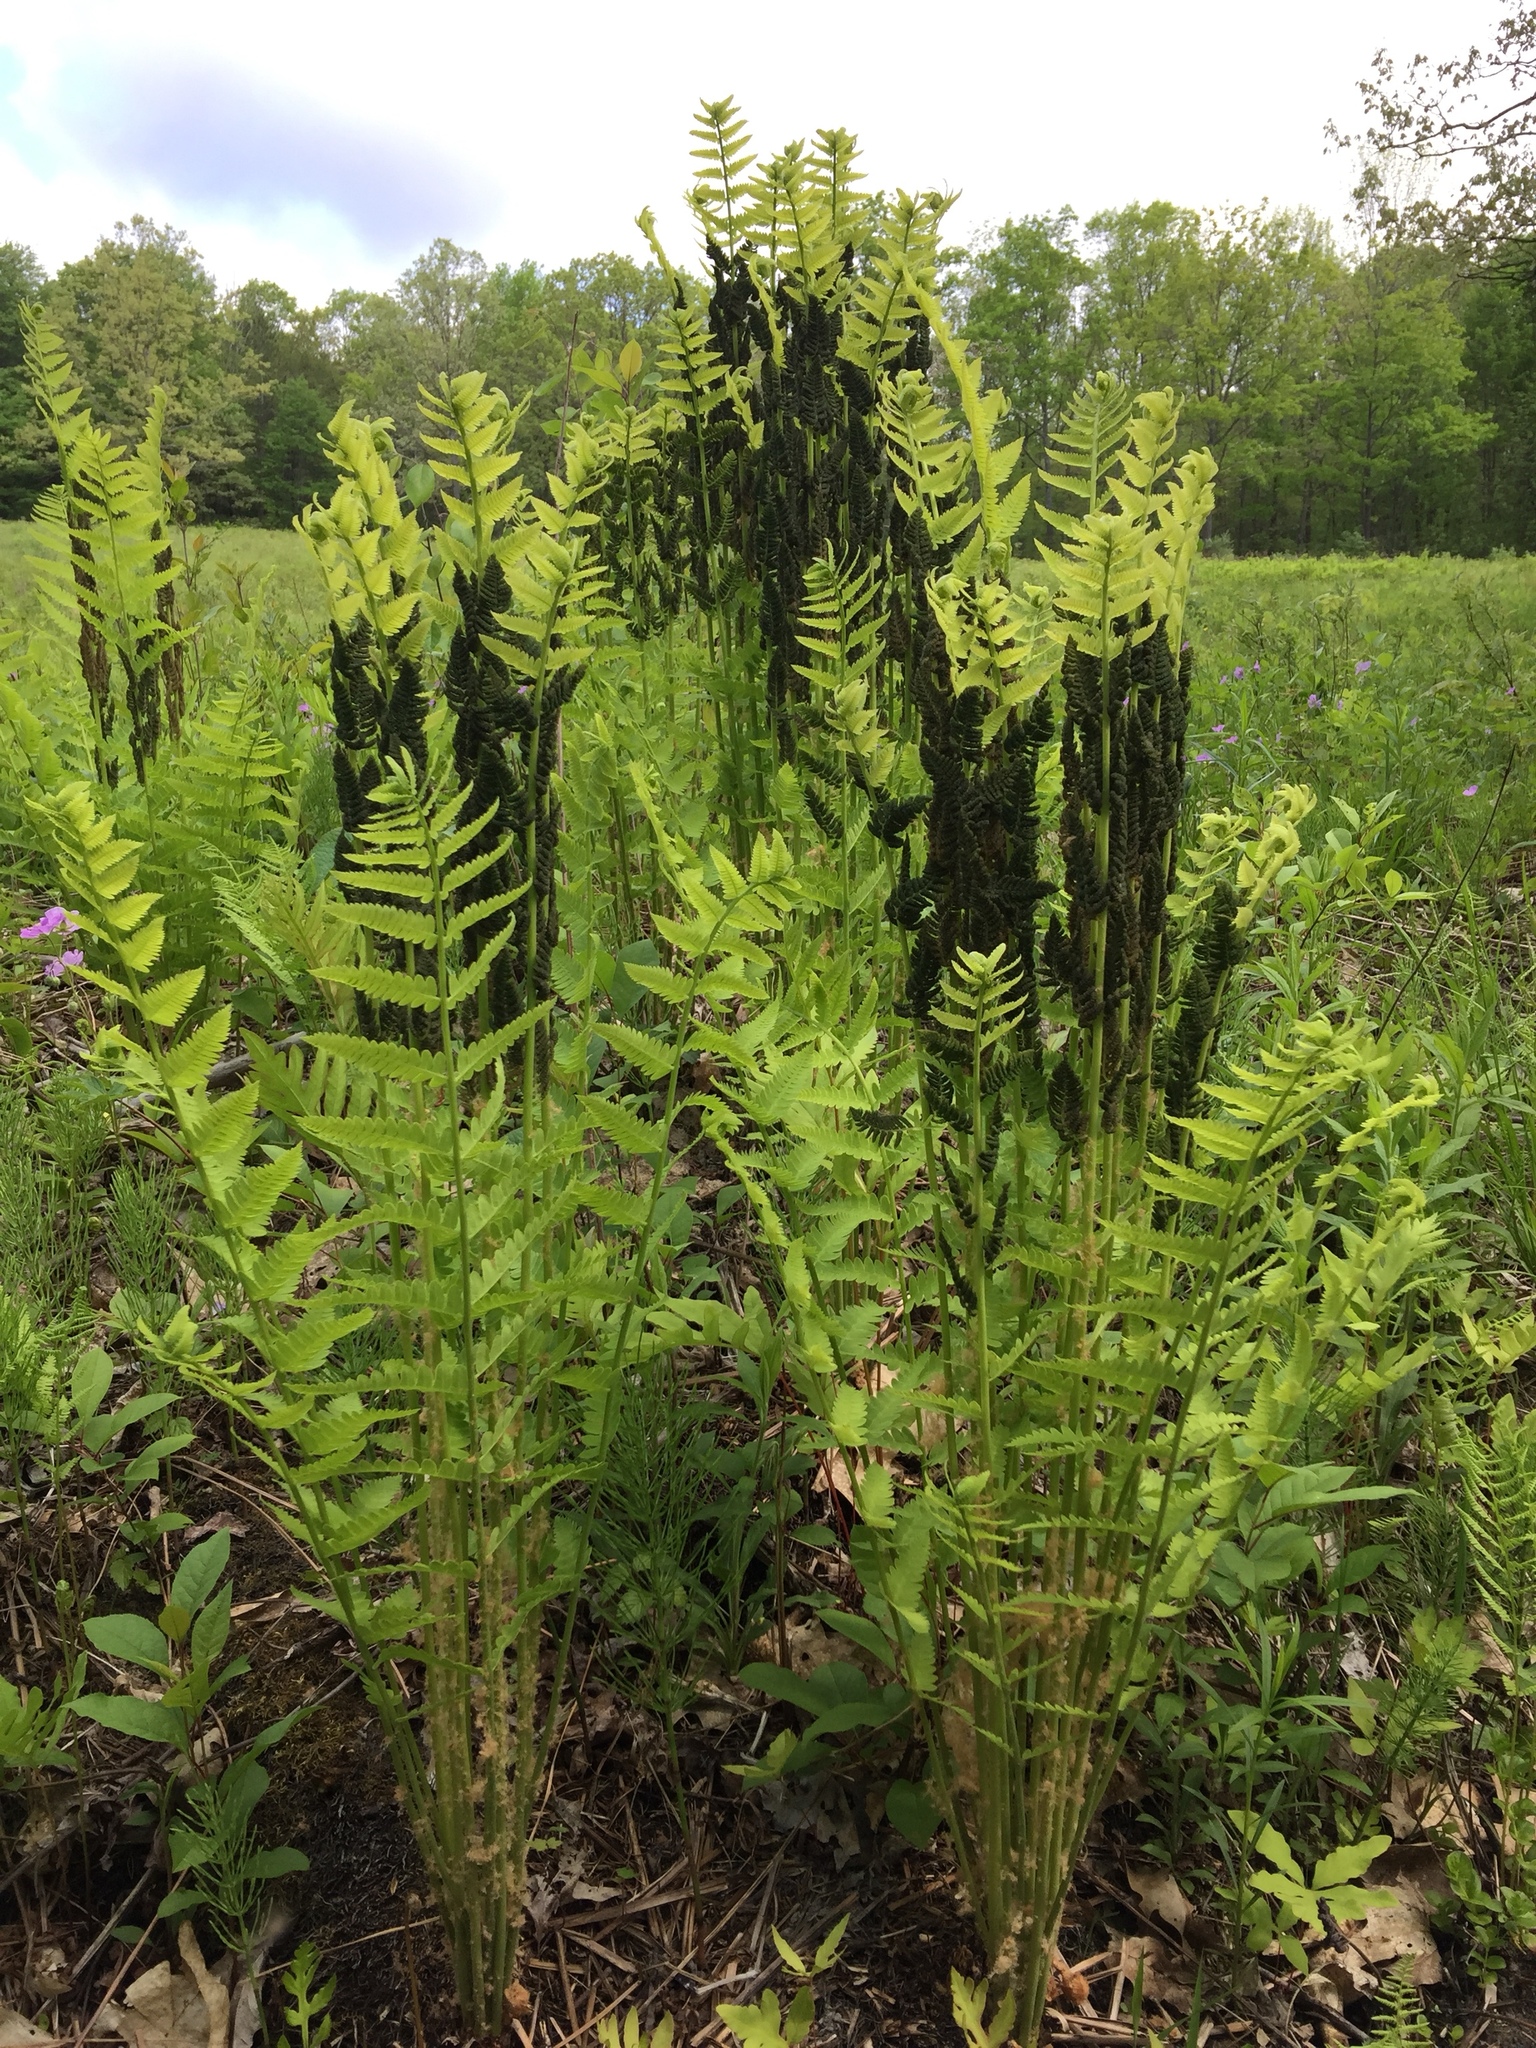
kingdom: Plantae
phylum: Tracheophyta
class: Polypodiopsida
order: Osmundales
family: Osmundaceae
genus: Claytosmunda
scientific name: Claytosmunda claytoniana
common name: Clayton's fern
